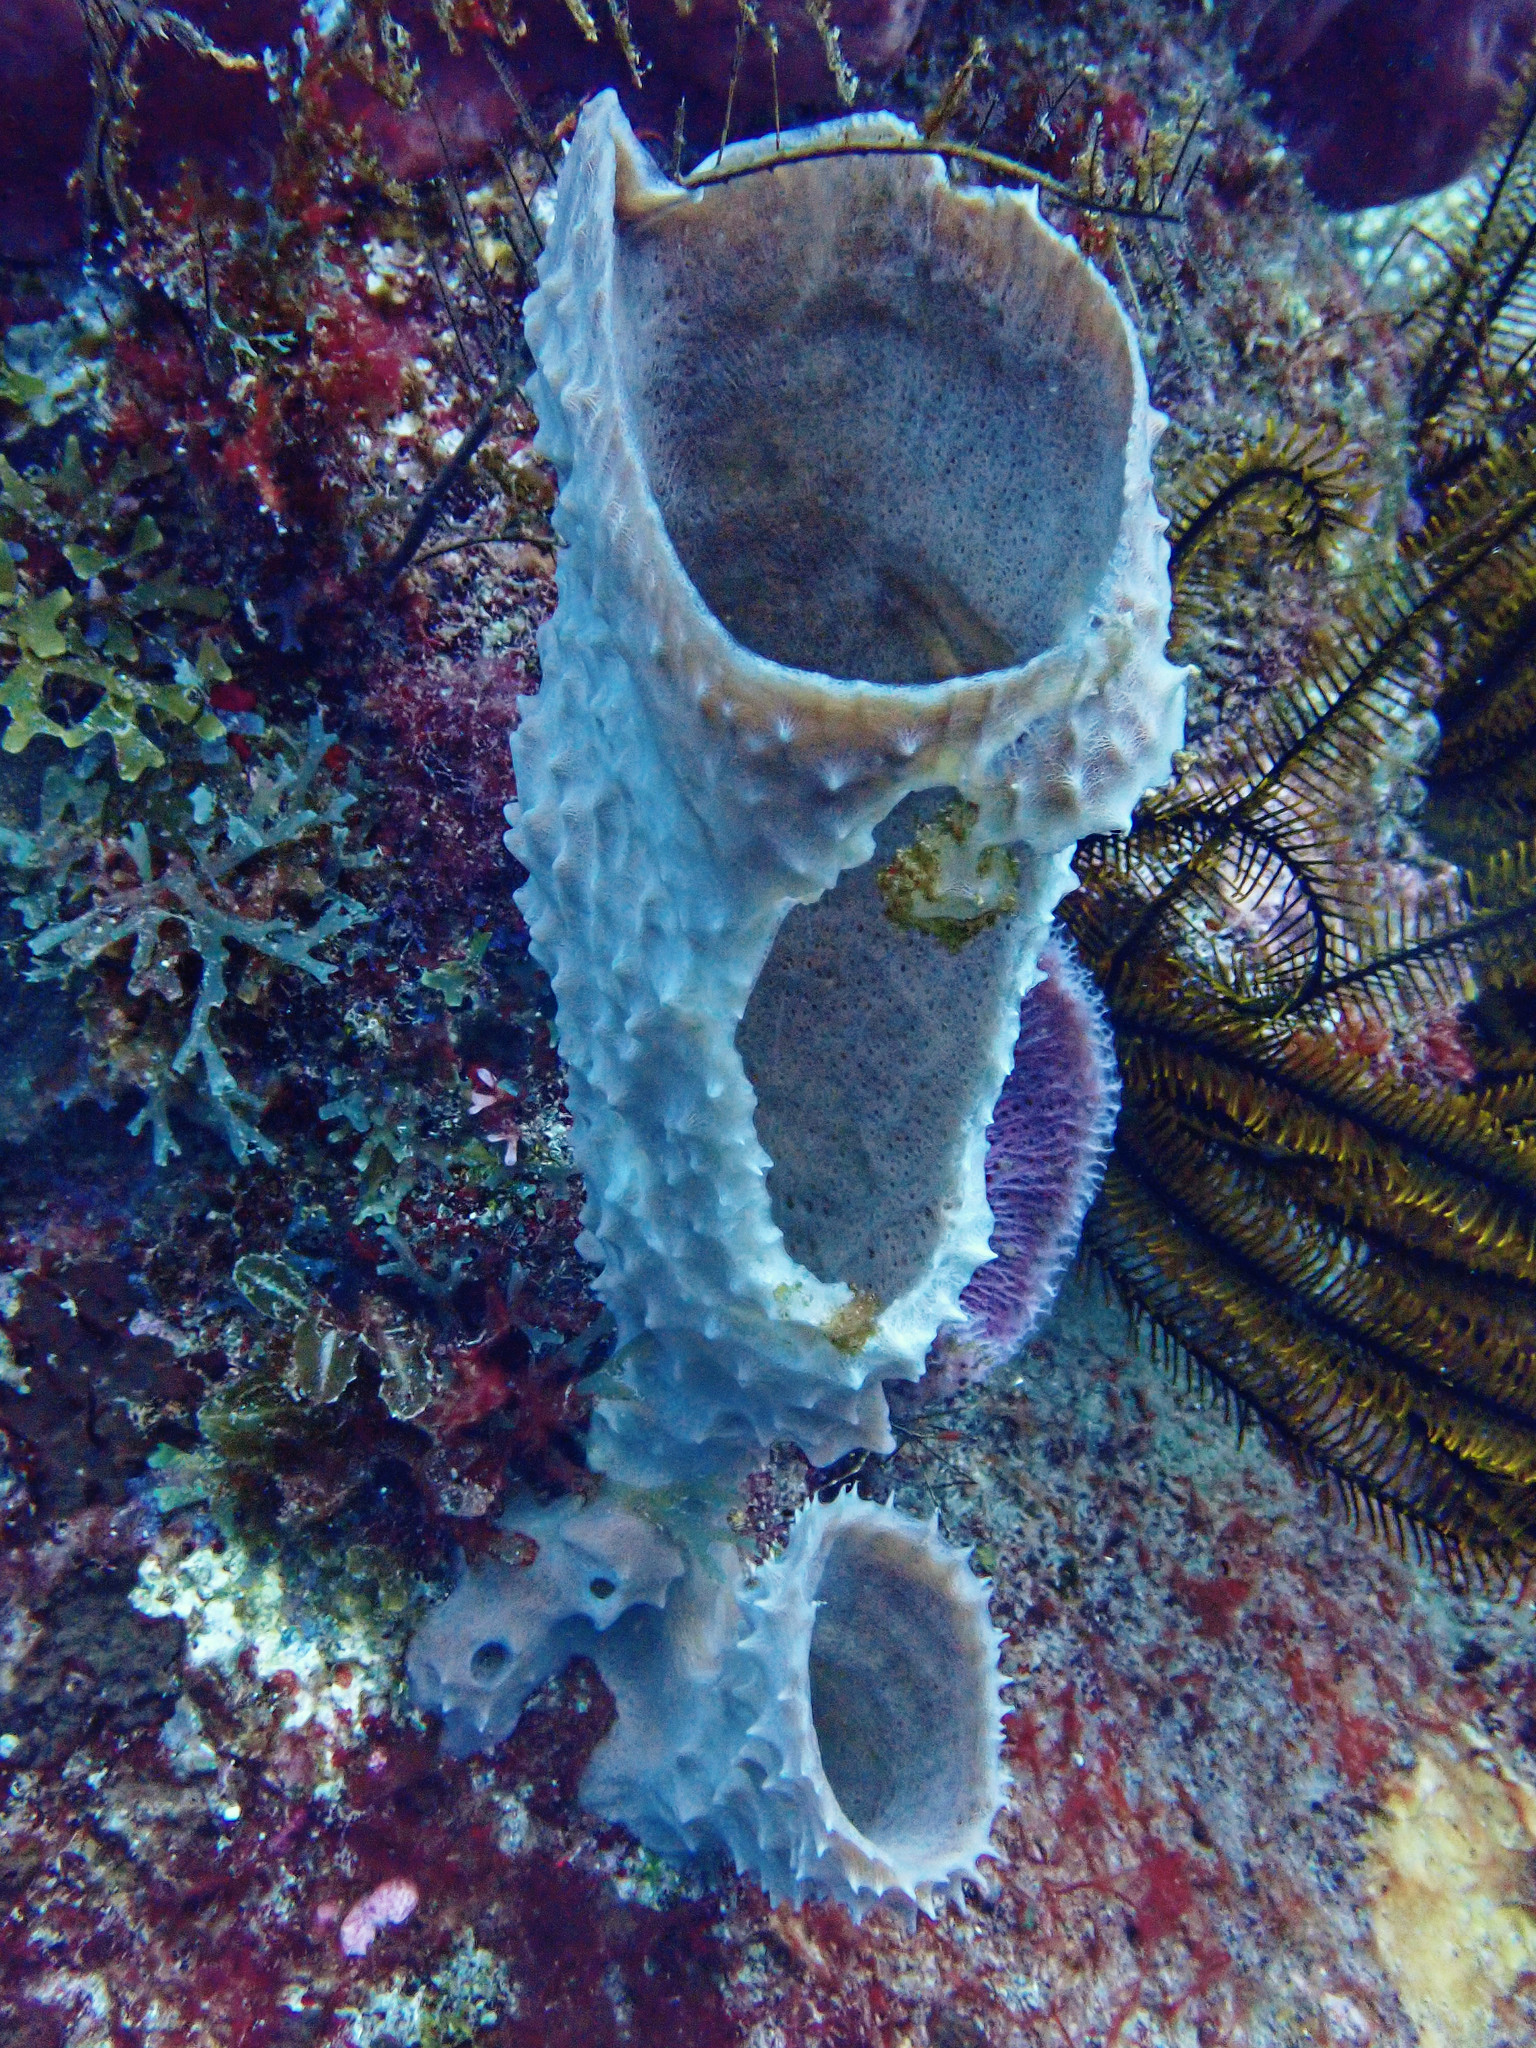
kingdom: Animalia
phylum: Porifera
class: Demospongiae
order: Haplosclerida
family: Callyspongiidae
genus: Callyspongia
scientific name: Callyspongia aculeata
